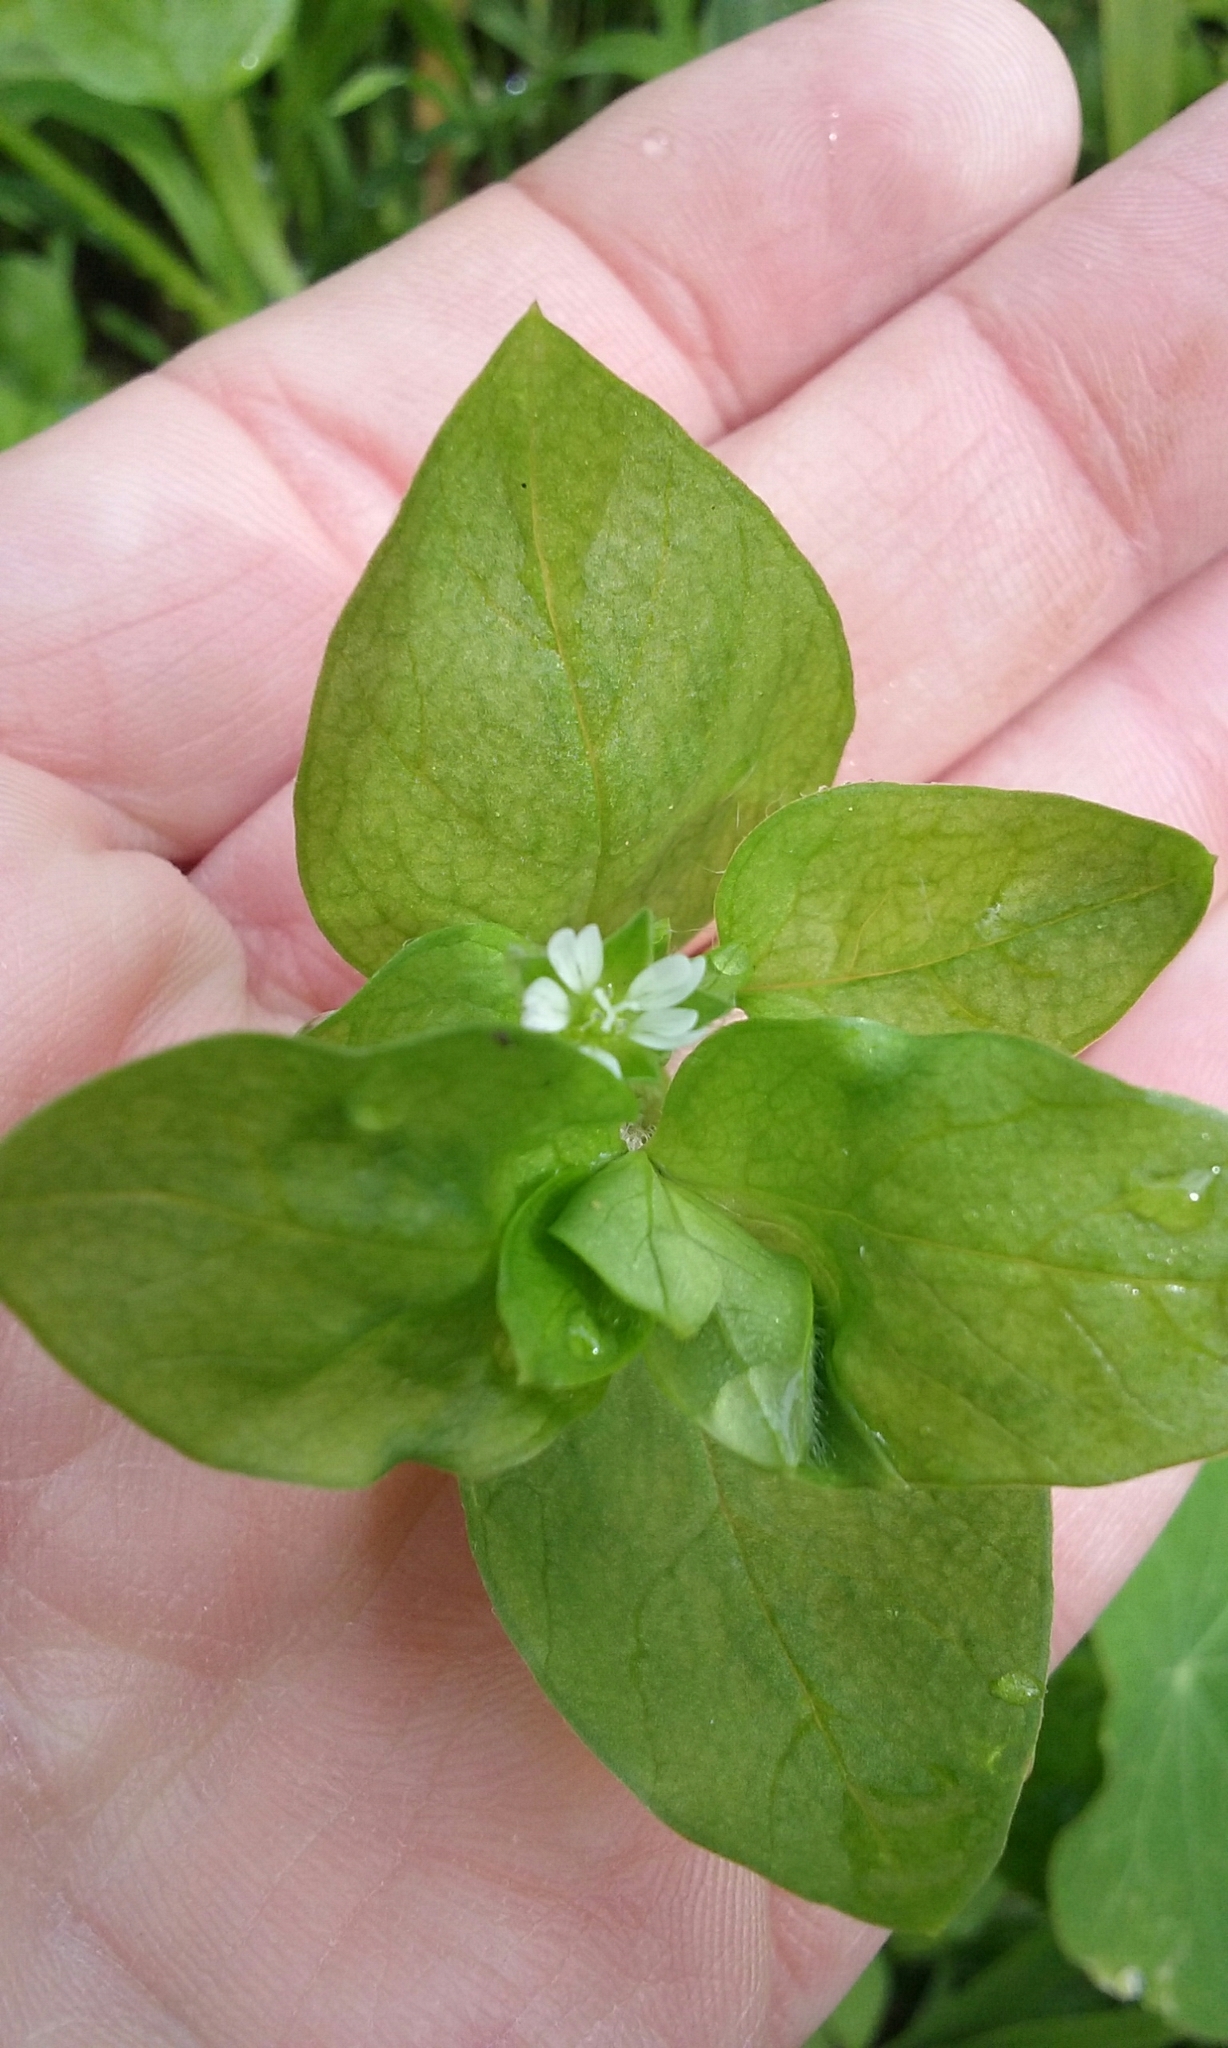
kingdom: Plantae
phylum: Tracheophyta
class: Magnoliopsida
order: Caryophyllales
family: Caryophyllaceae
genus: Stellaria
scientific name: Stellaria media
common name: Common chickweed
